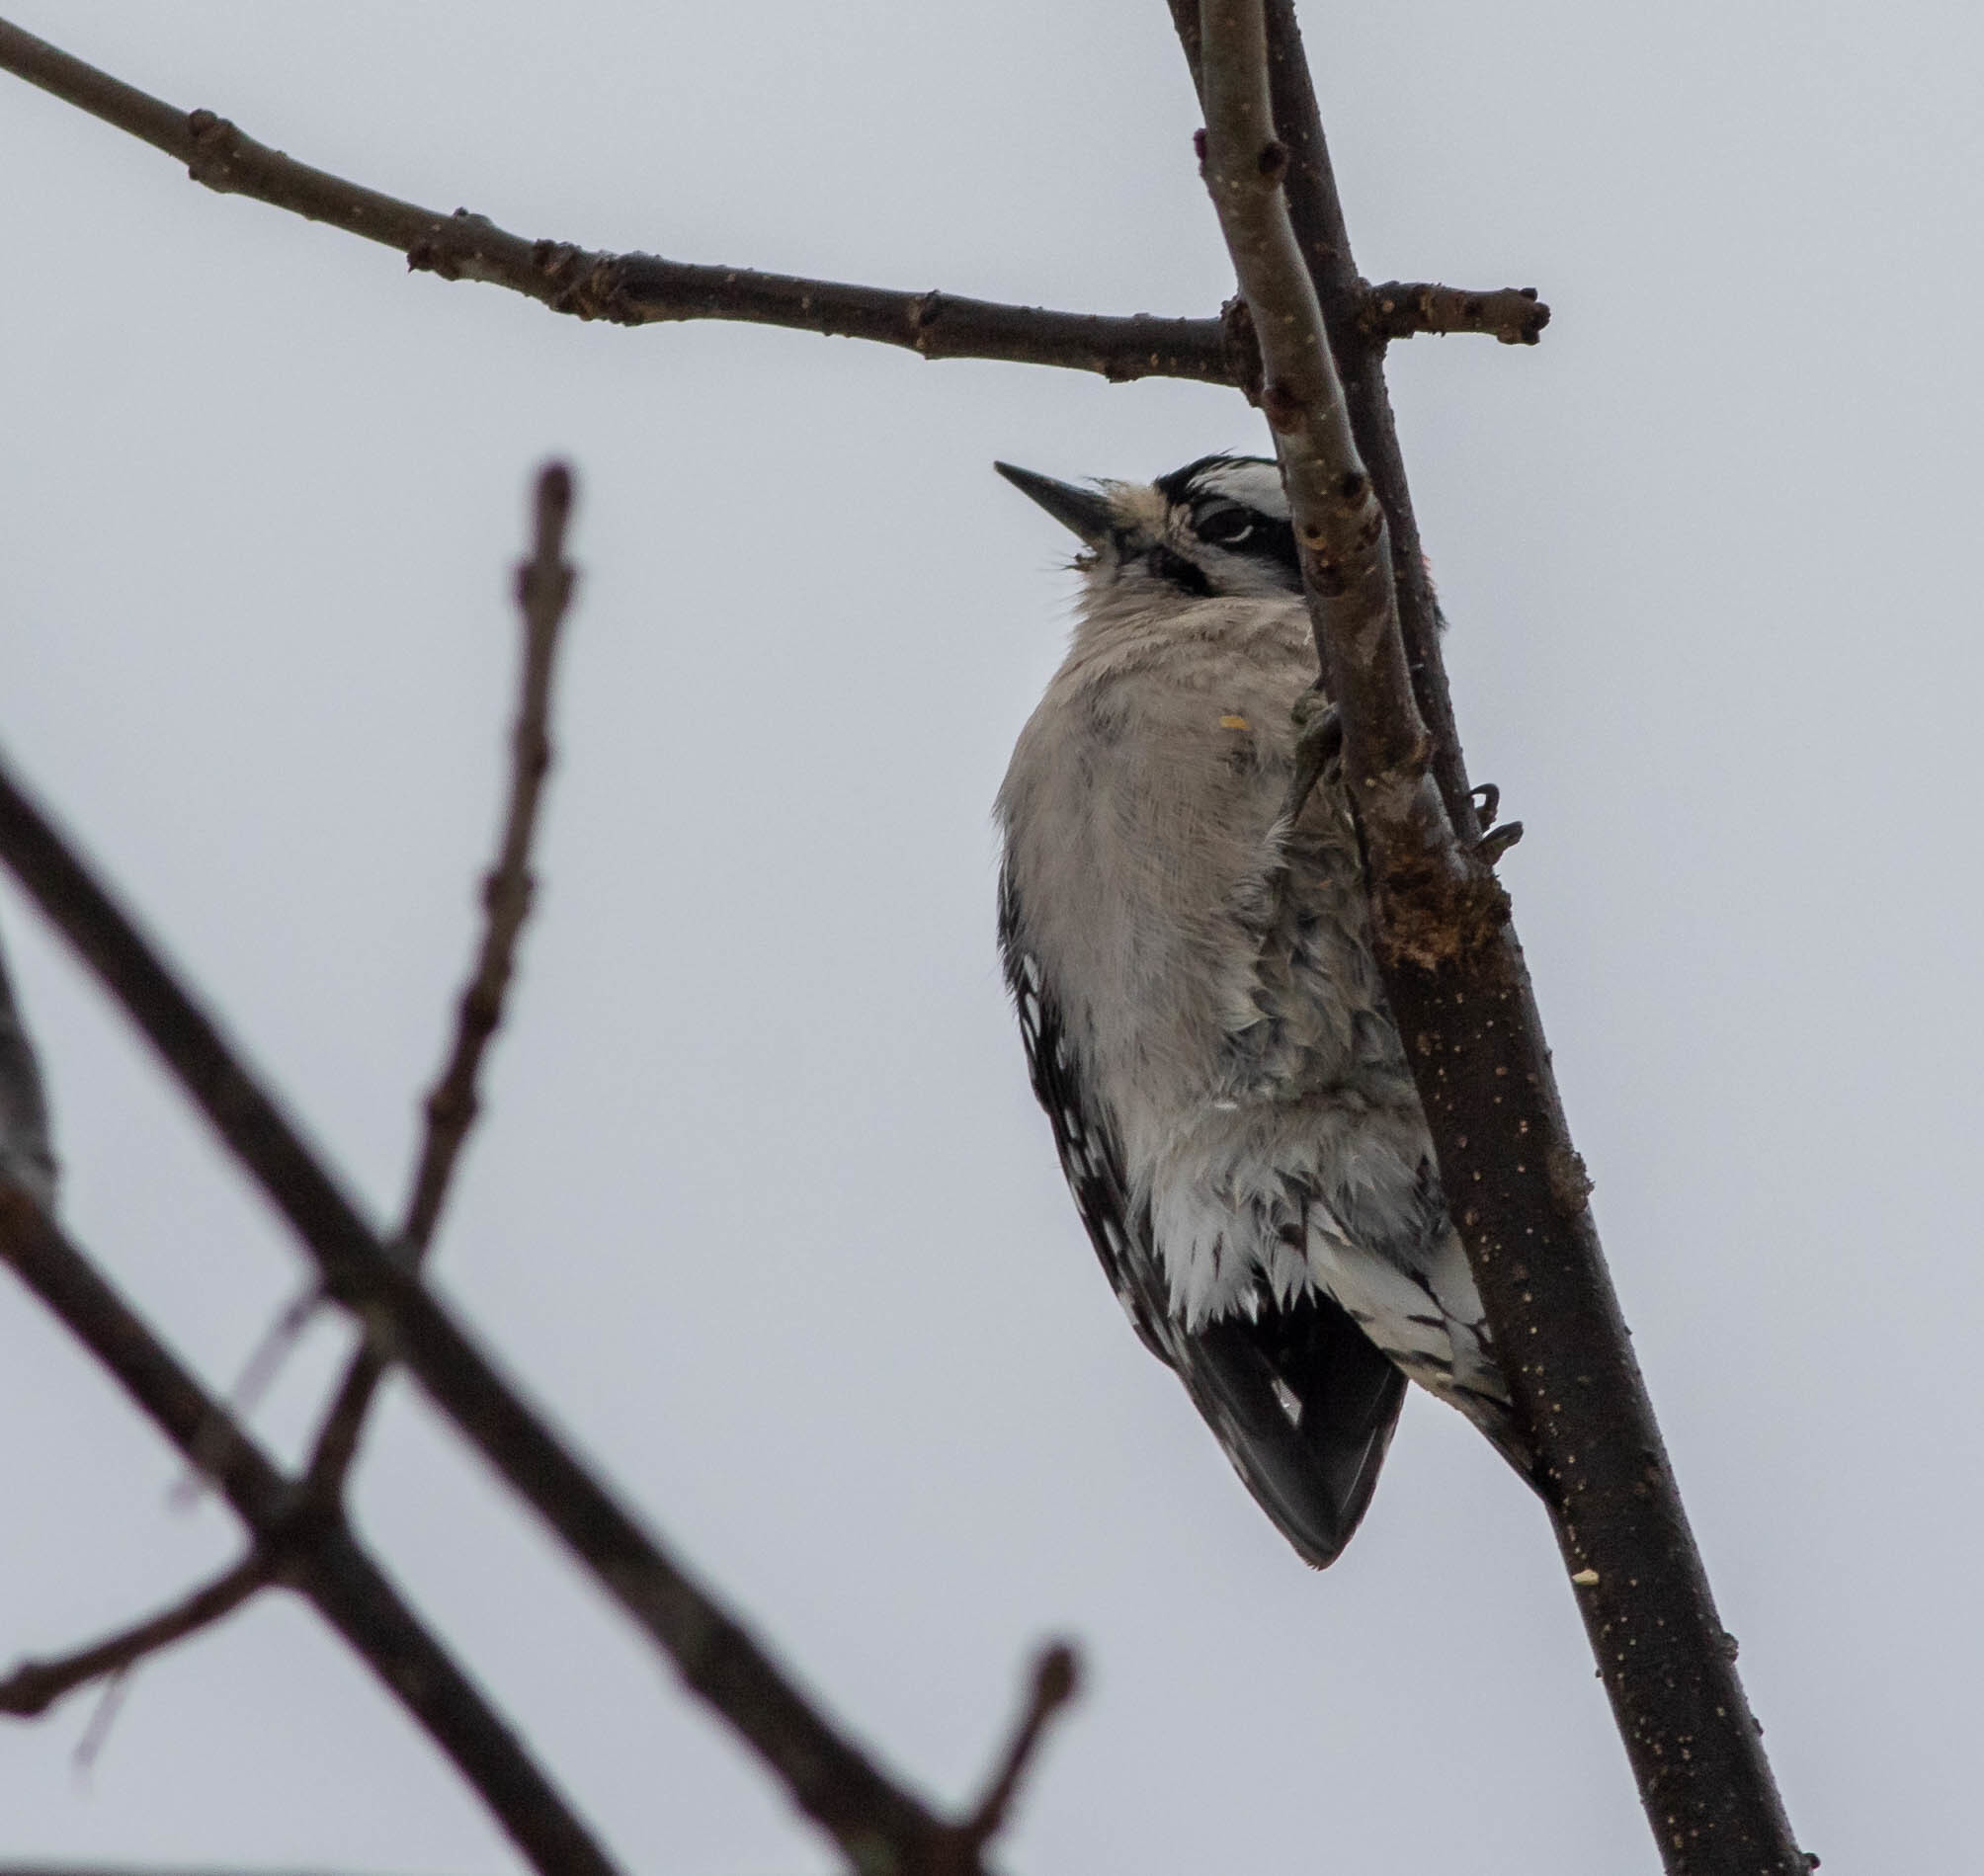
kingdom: Animalia
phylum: Chordata
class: Aves
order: Piciformes
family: Picidae
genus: Dryobates
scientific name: Dryobates pubescens
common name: Downy woodpecker
